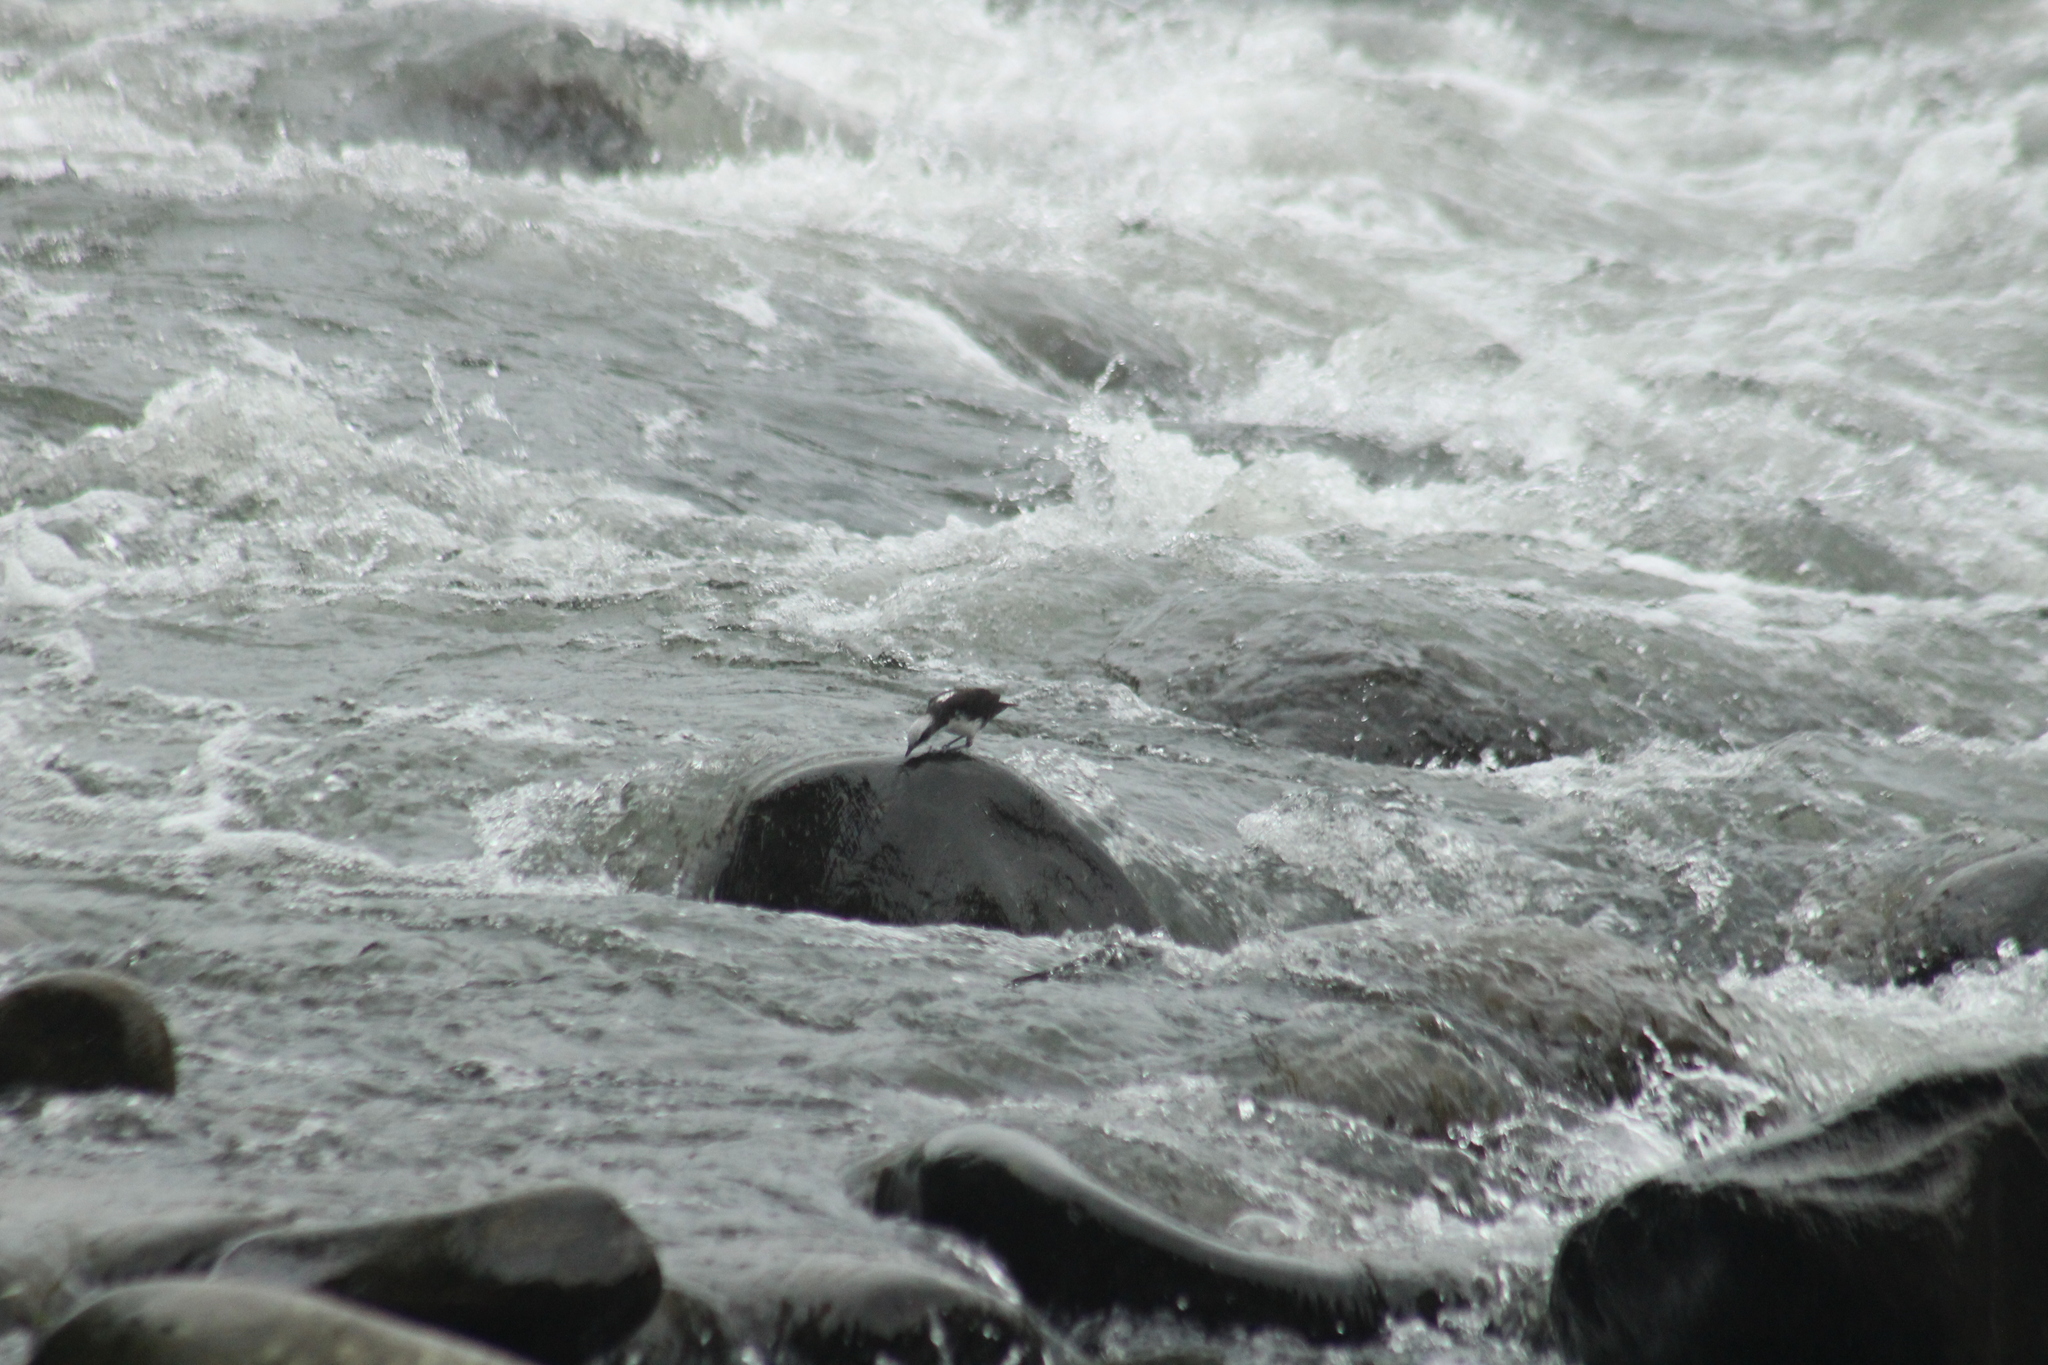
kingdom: Animalia
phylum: Chordata
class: Aves
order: Passeriformes
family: Cinclidae
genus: Cinclus
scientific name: Cinclus leucocephalus
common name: White-capped dipper
